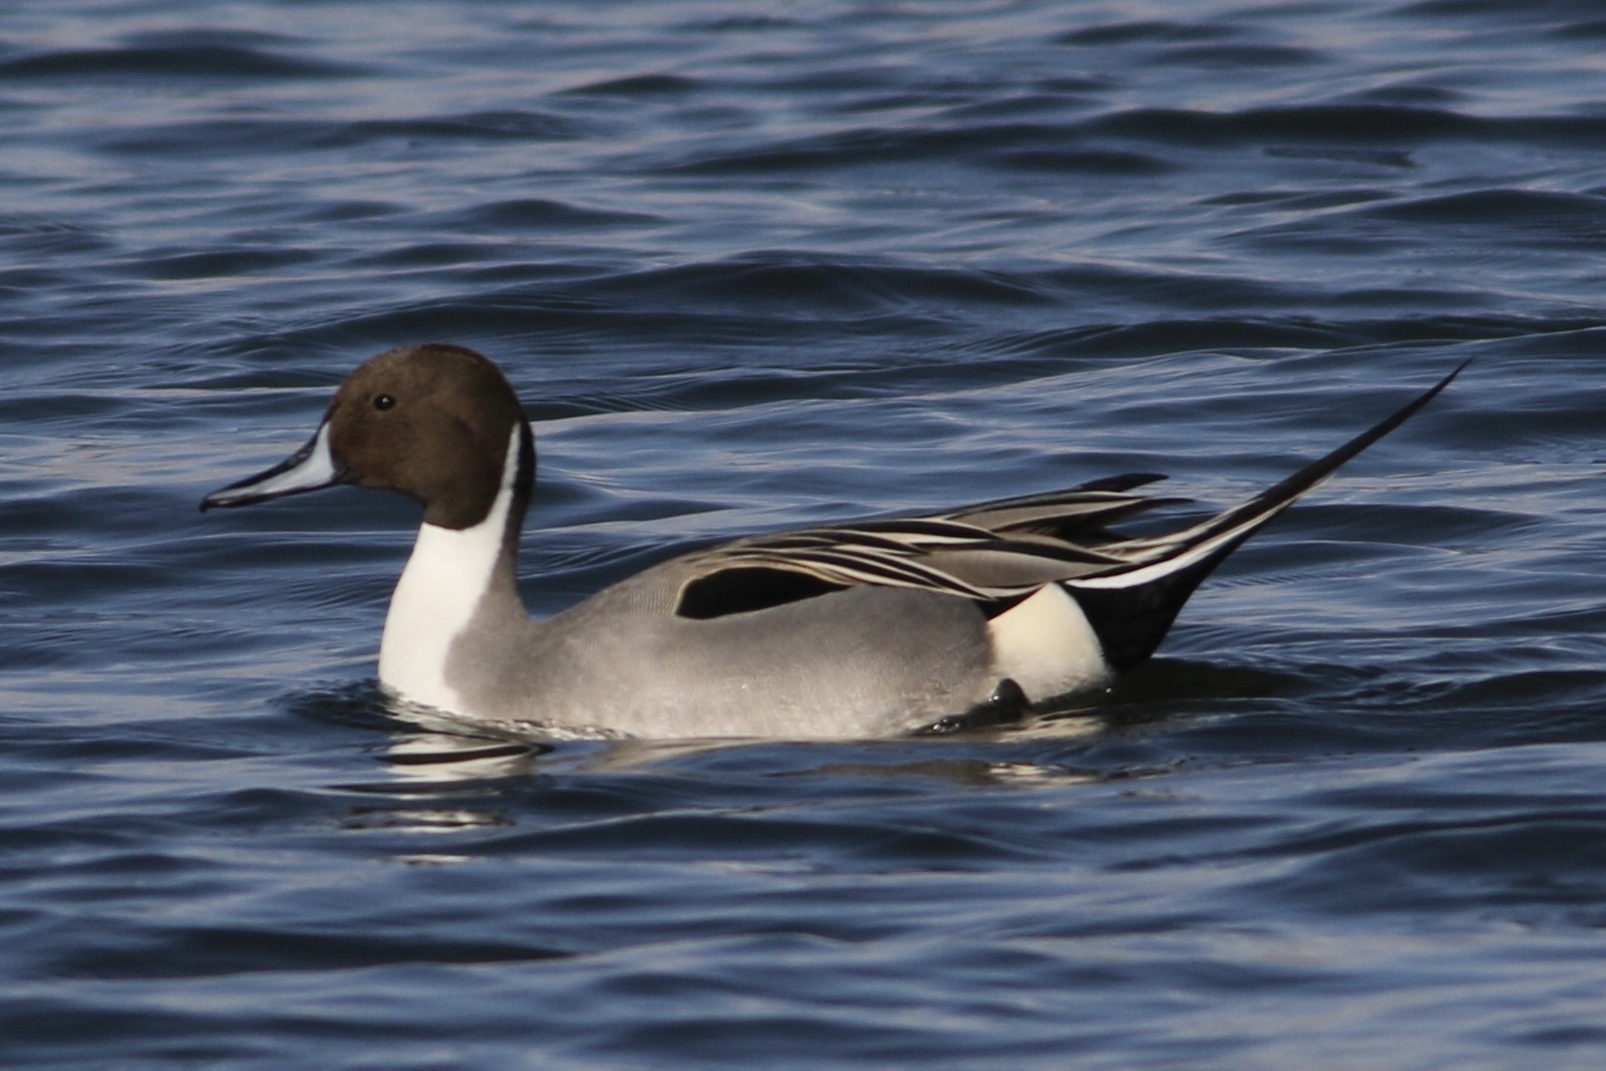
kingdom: Animalia
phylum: Chordata
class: Aves
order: Anseriformes
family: Anatidae
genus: Anas
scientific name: Anas acuta
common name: Northern pintail
